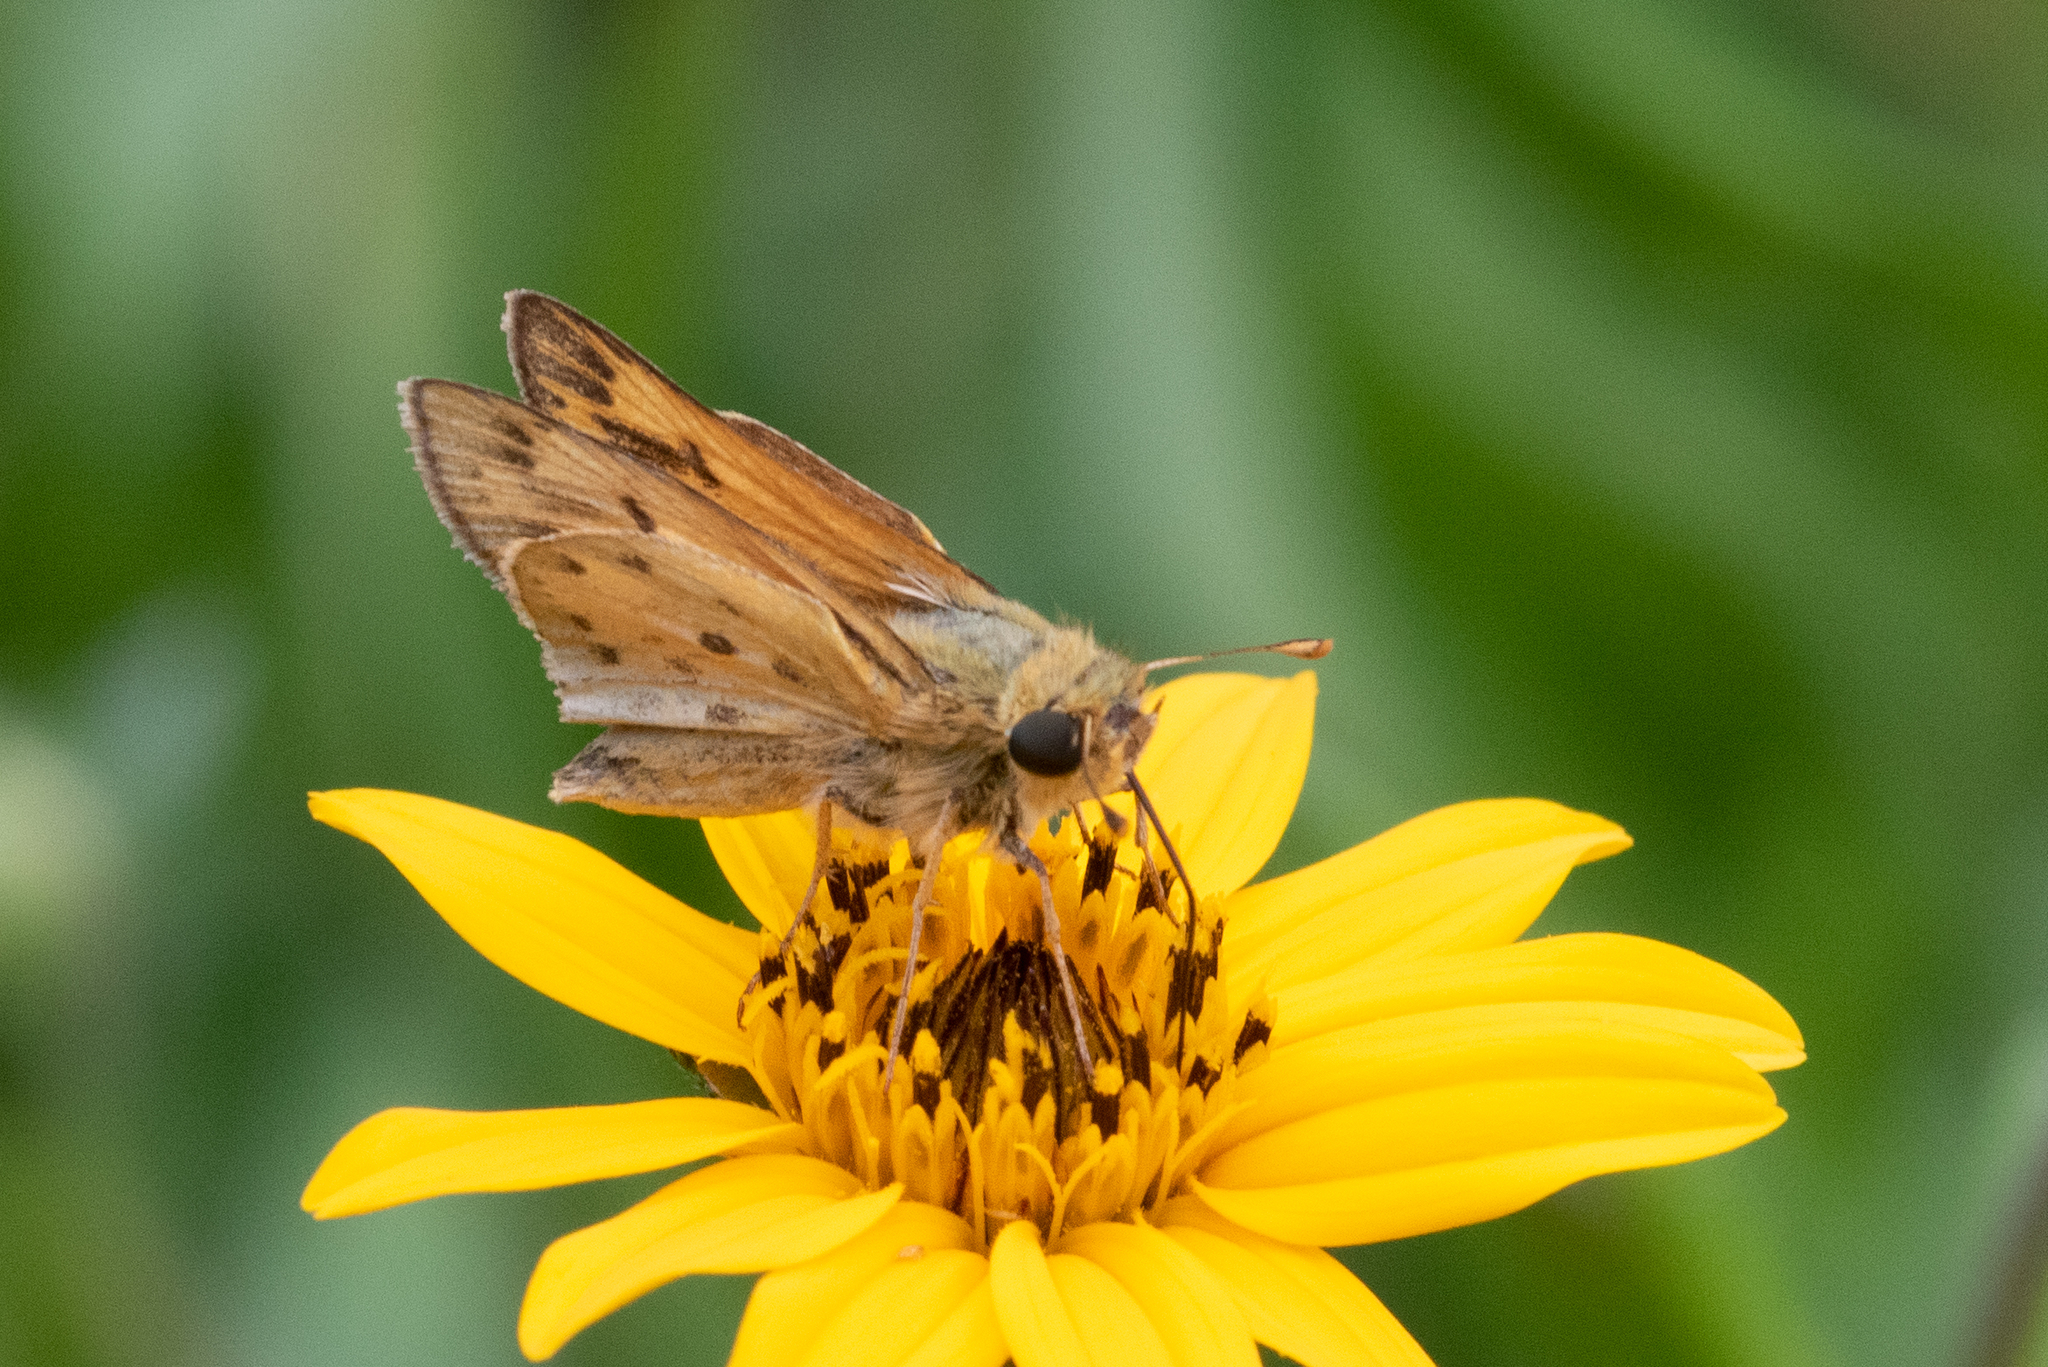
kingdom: Animalia
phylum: Arthropoda
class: Insecta
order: Lepidoptera
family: Hesperiidae
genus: Hylephila
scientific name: Hylephila phyleus
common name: Fiery skipper
